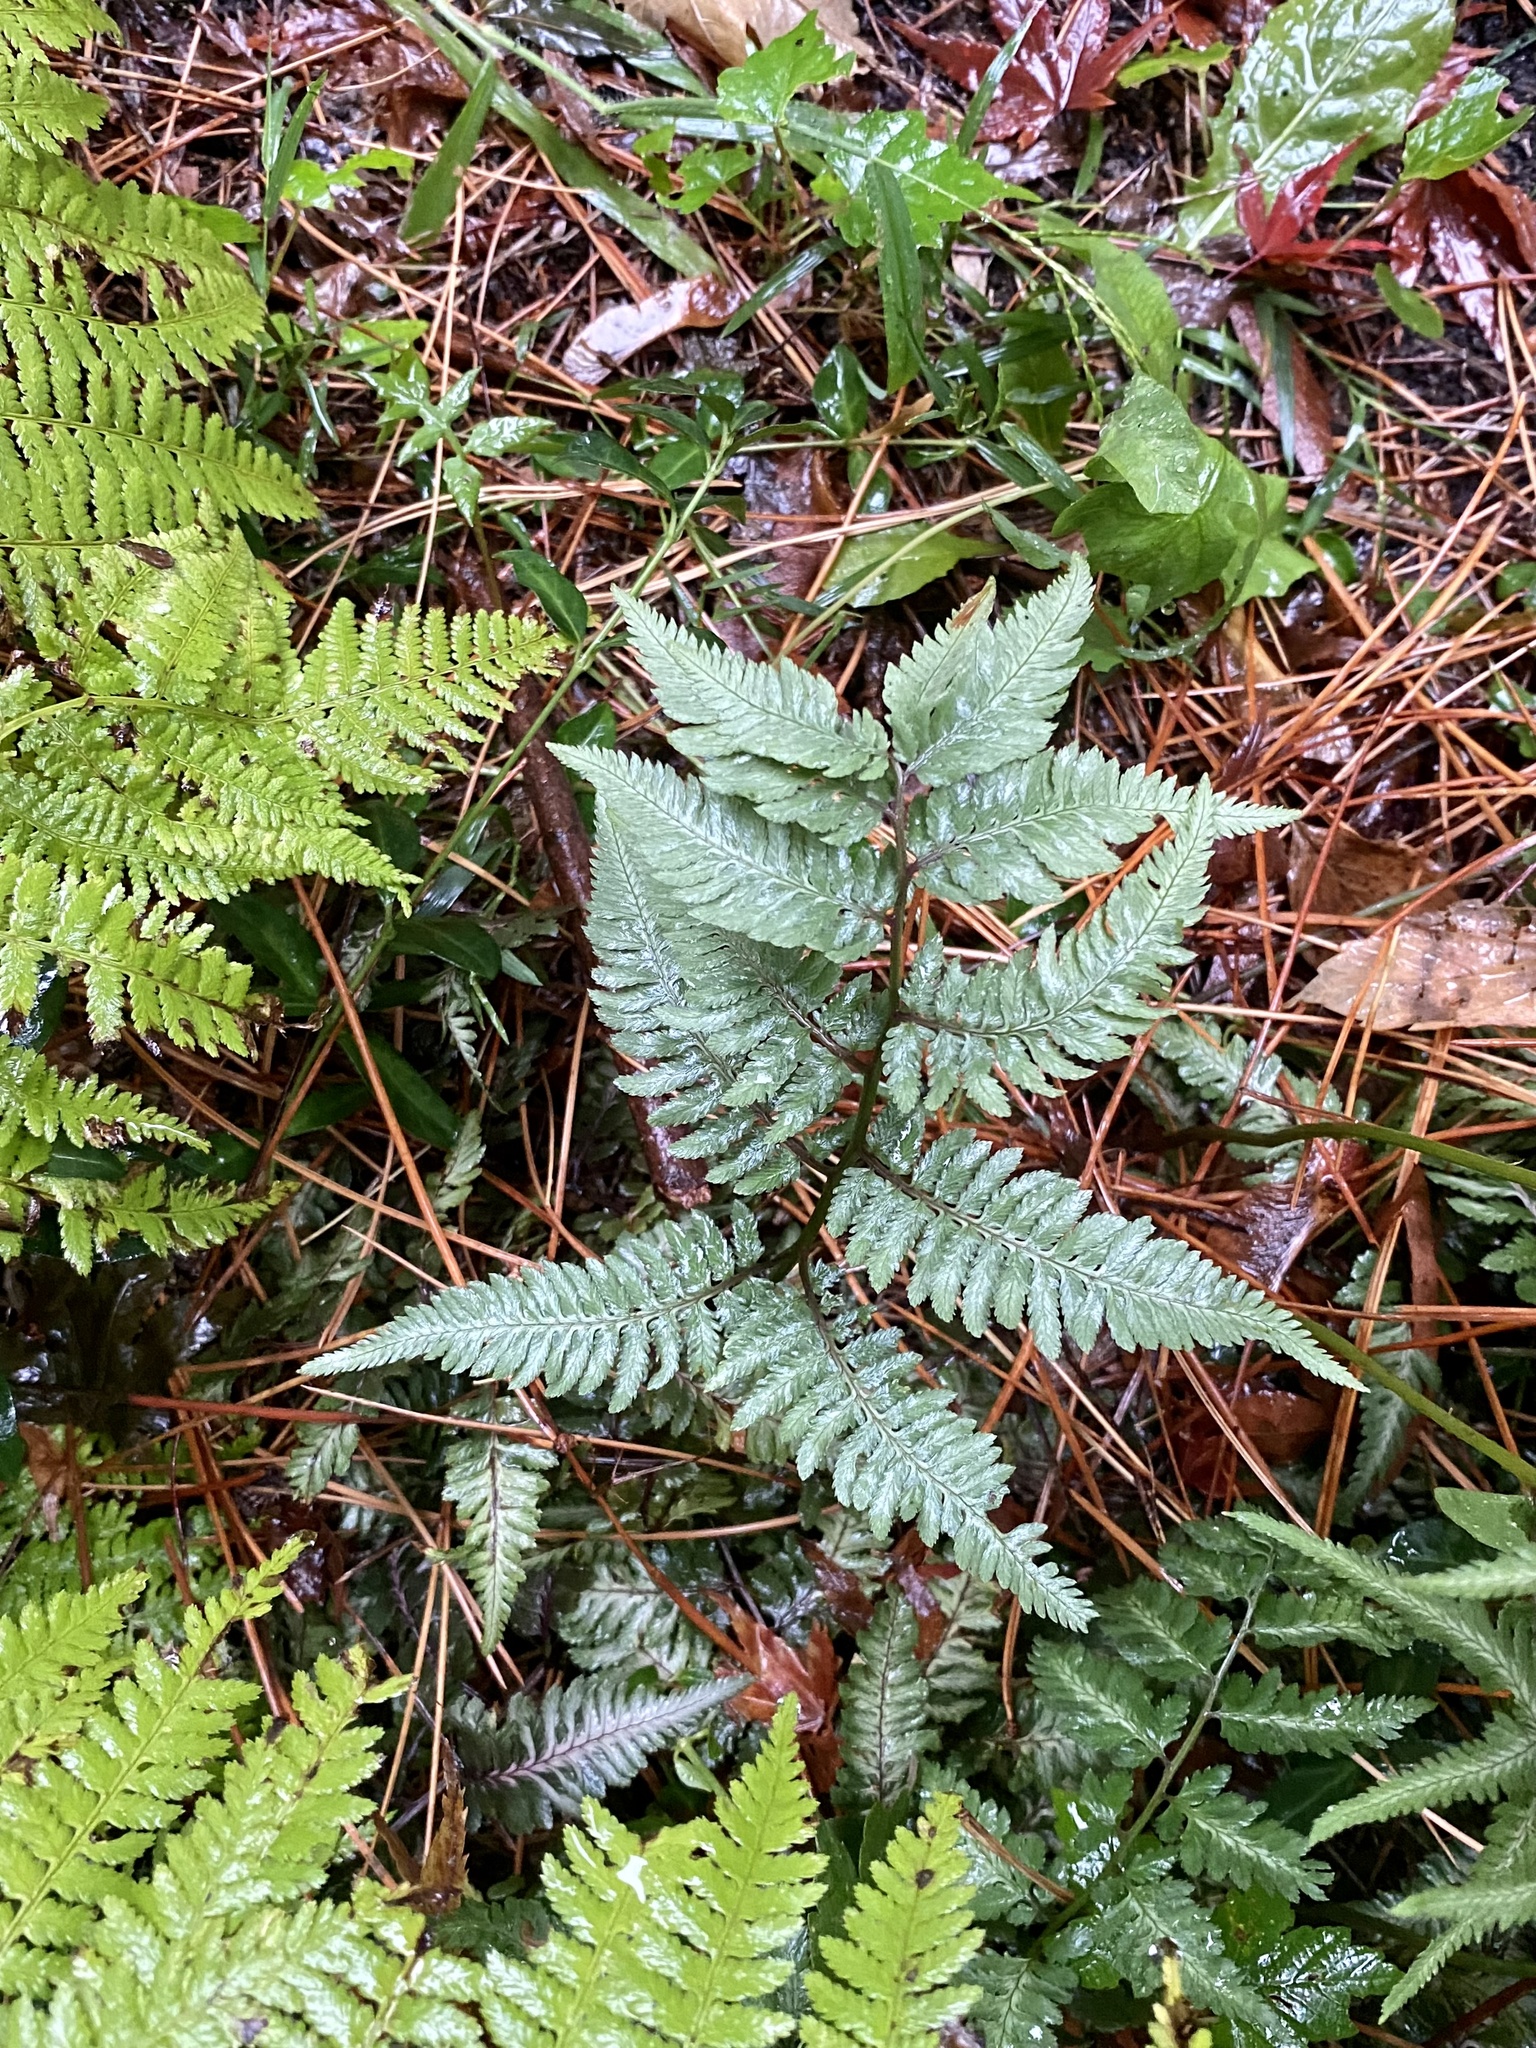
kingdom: Plantae
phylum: Tracheophyta
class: Polypodiopsida
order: Polypodiales
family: Athyriaceae
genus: Anisocampium
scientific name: Anisocampium niponicum
